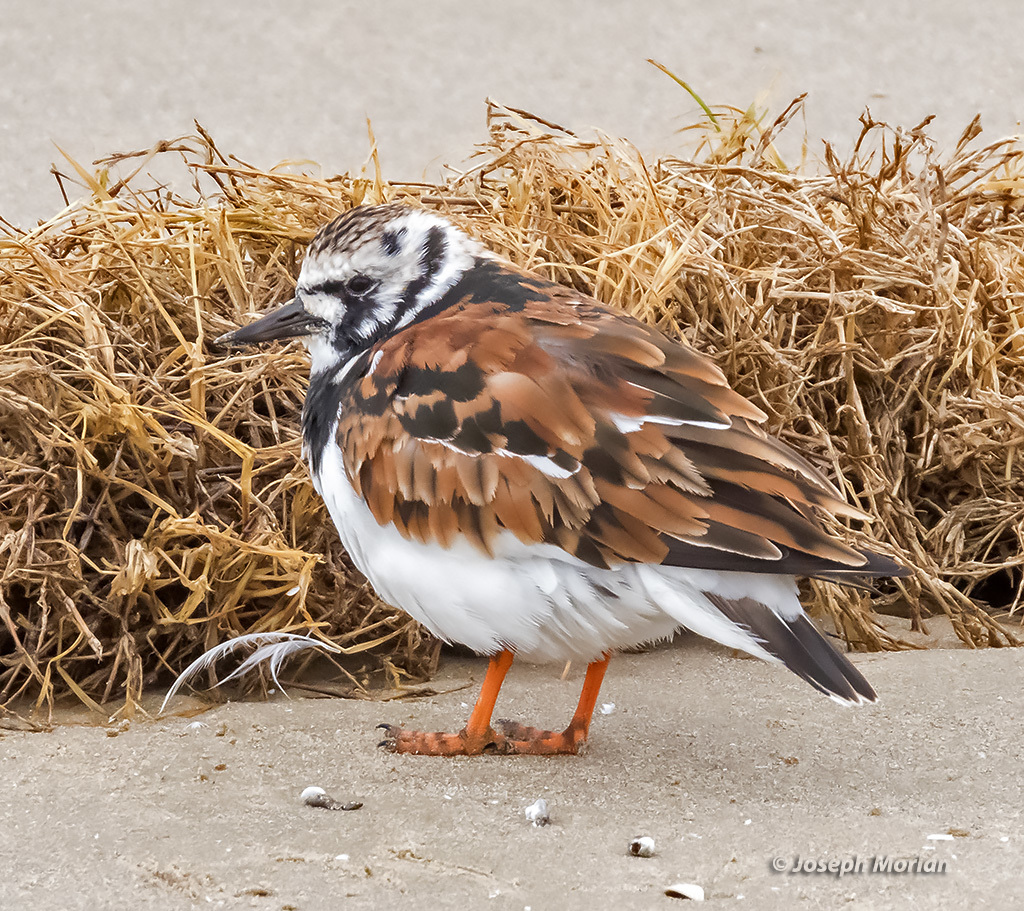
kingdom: Animalia
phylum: Chordata
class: Aves
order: Charadriiformes
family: Scolopacidae
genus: Arenaria
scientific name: Arenaria interpres
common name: Ruddy turnstone
